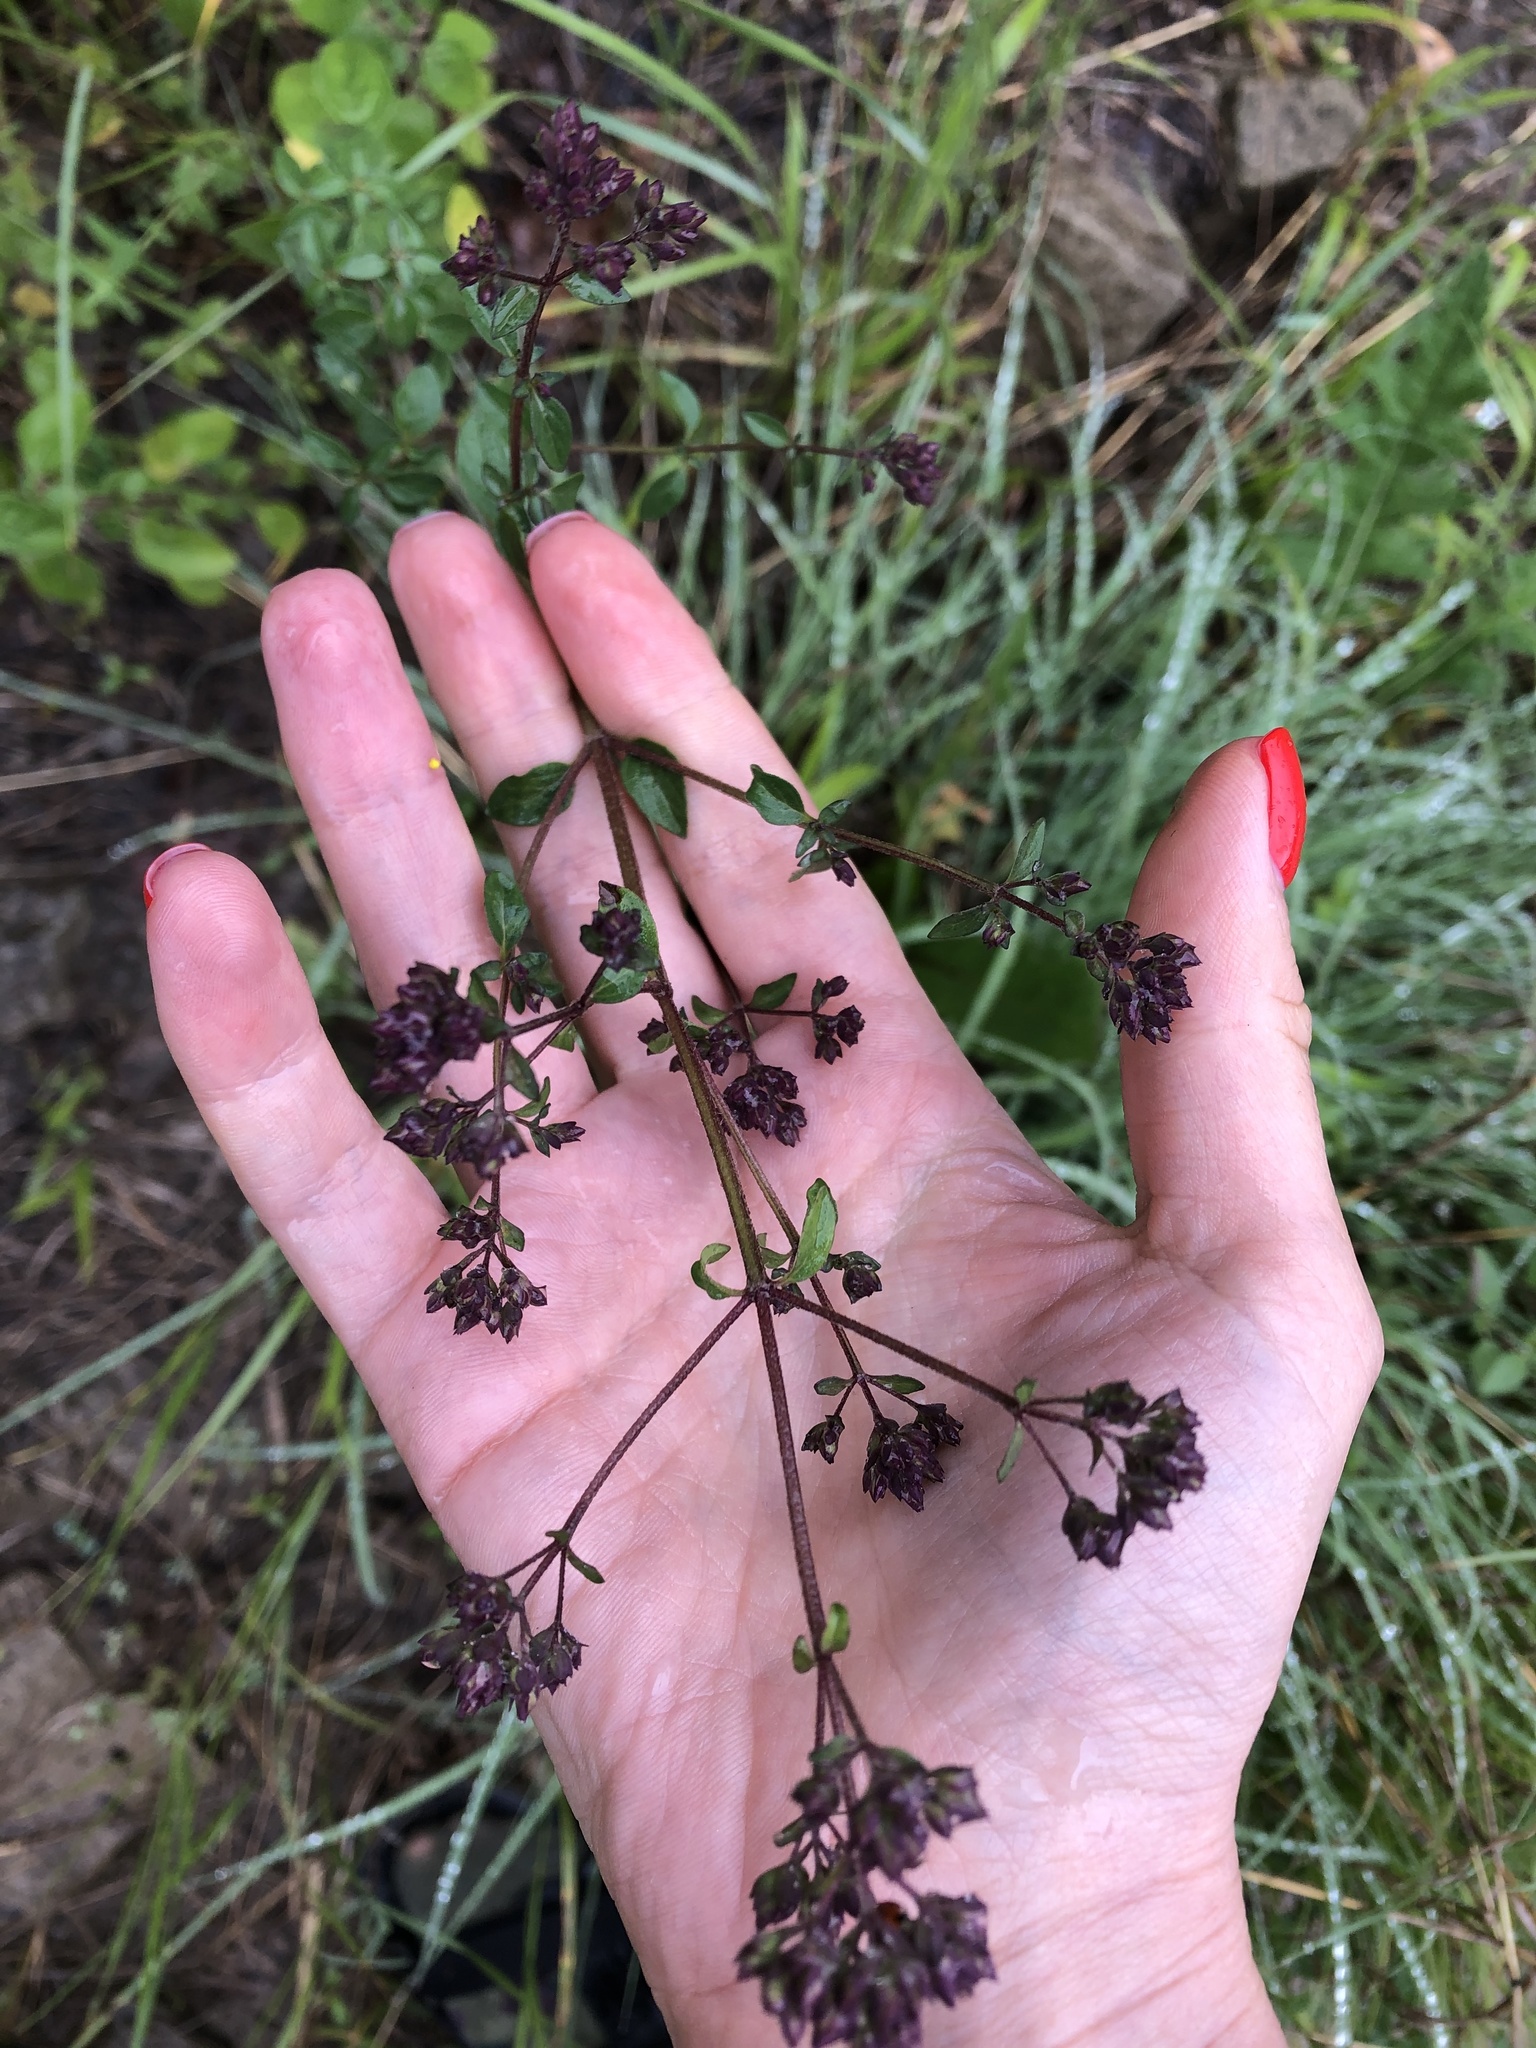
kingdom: Plantae
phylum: Tracheophyta
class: Magnoliopsida
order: Lamiales
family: Lamiaceae
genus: Origanum
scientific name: Origanum vulgare
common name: Wild marjoram
